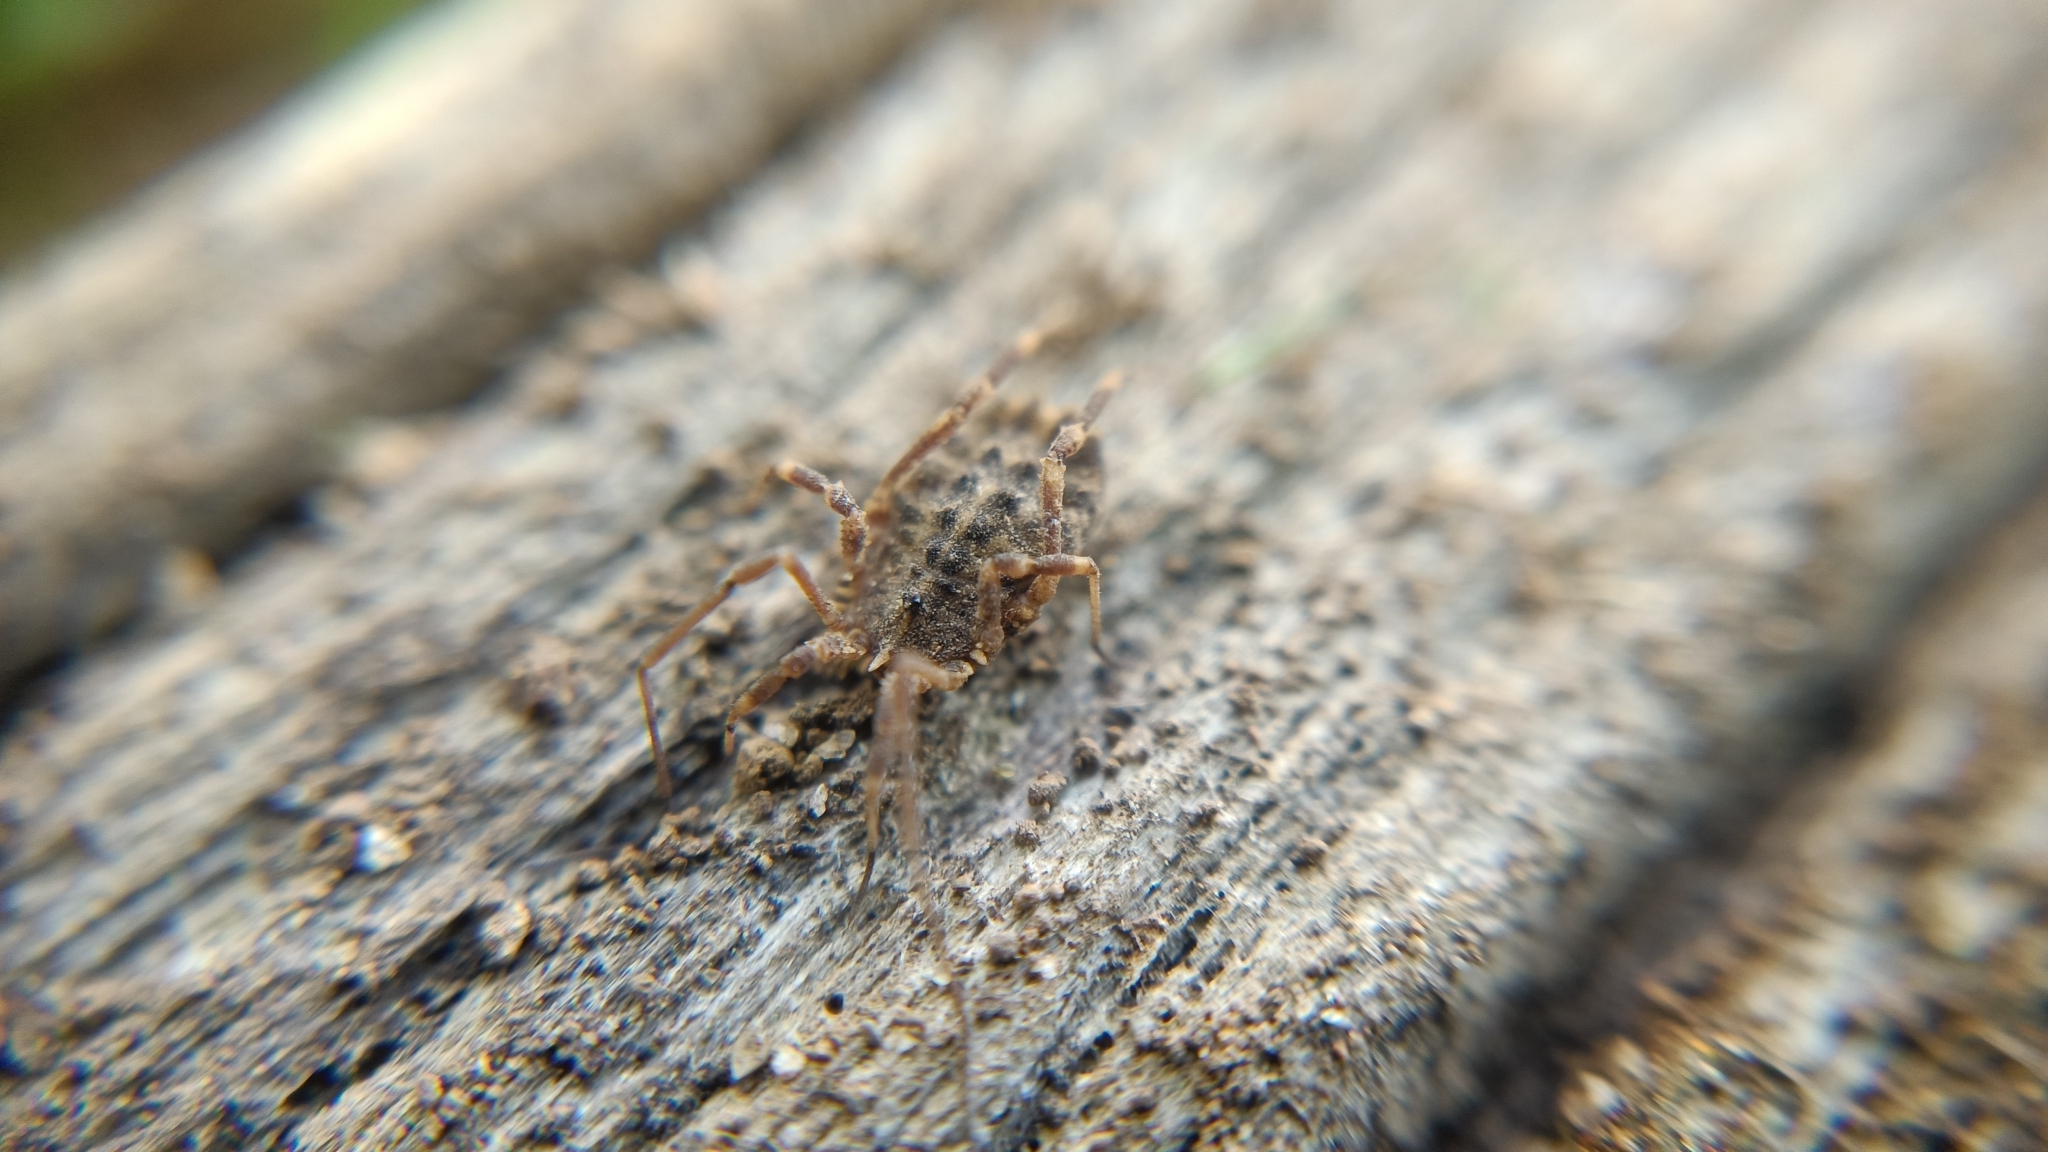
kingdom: Animalia
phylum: Arthropoda
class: Arachnida
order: Opiliones
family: Sclerosomatidae
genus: Homalenotus
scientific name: Homalenotus quadridentatus
